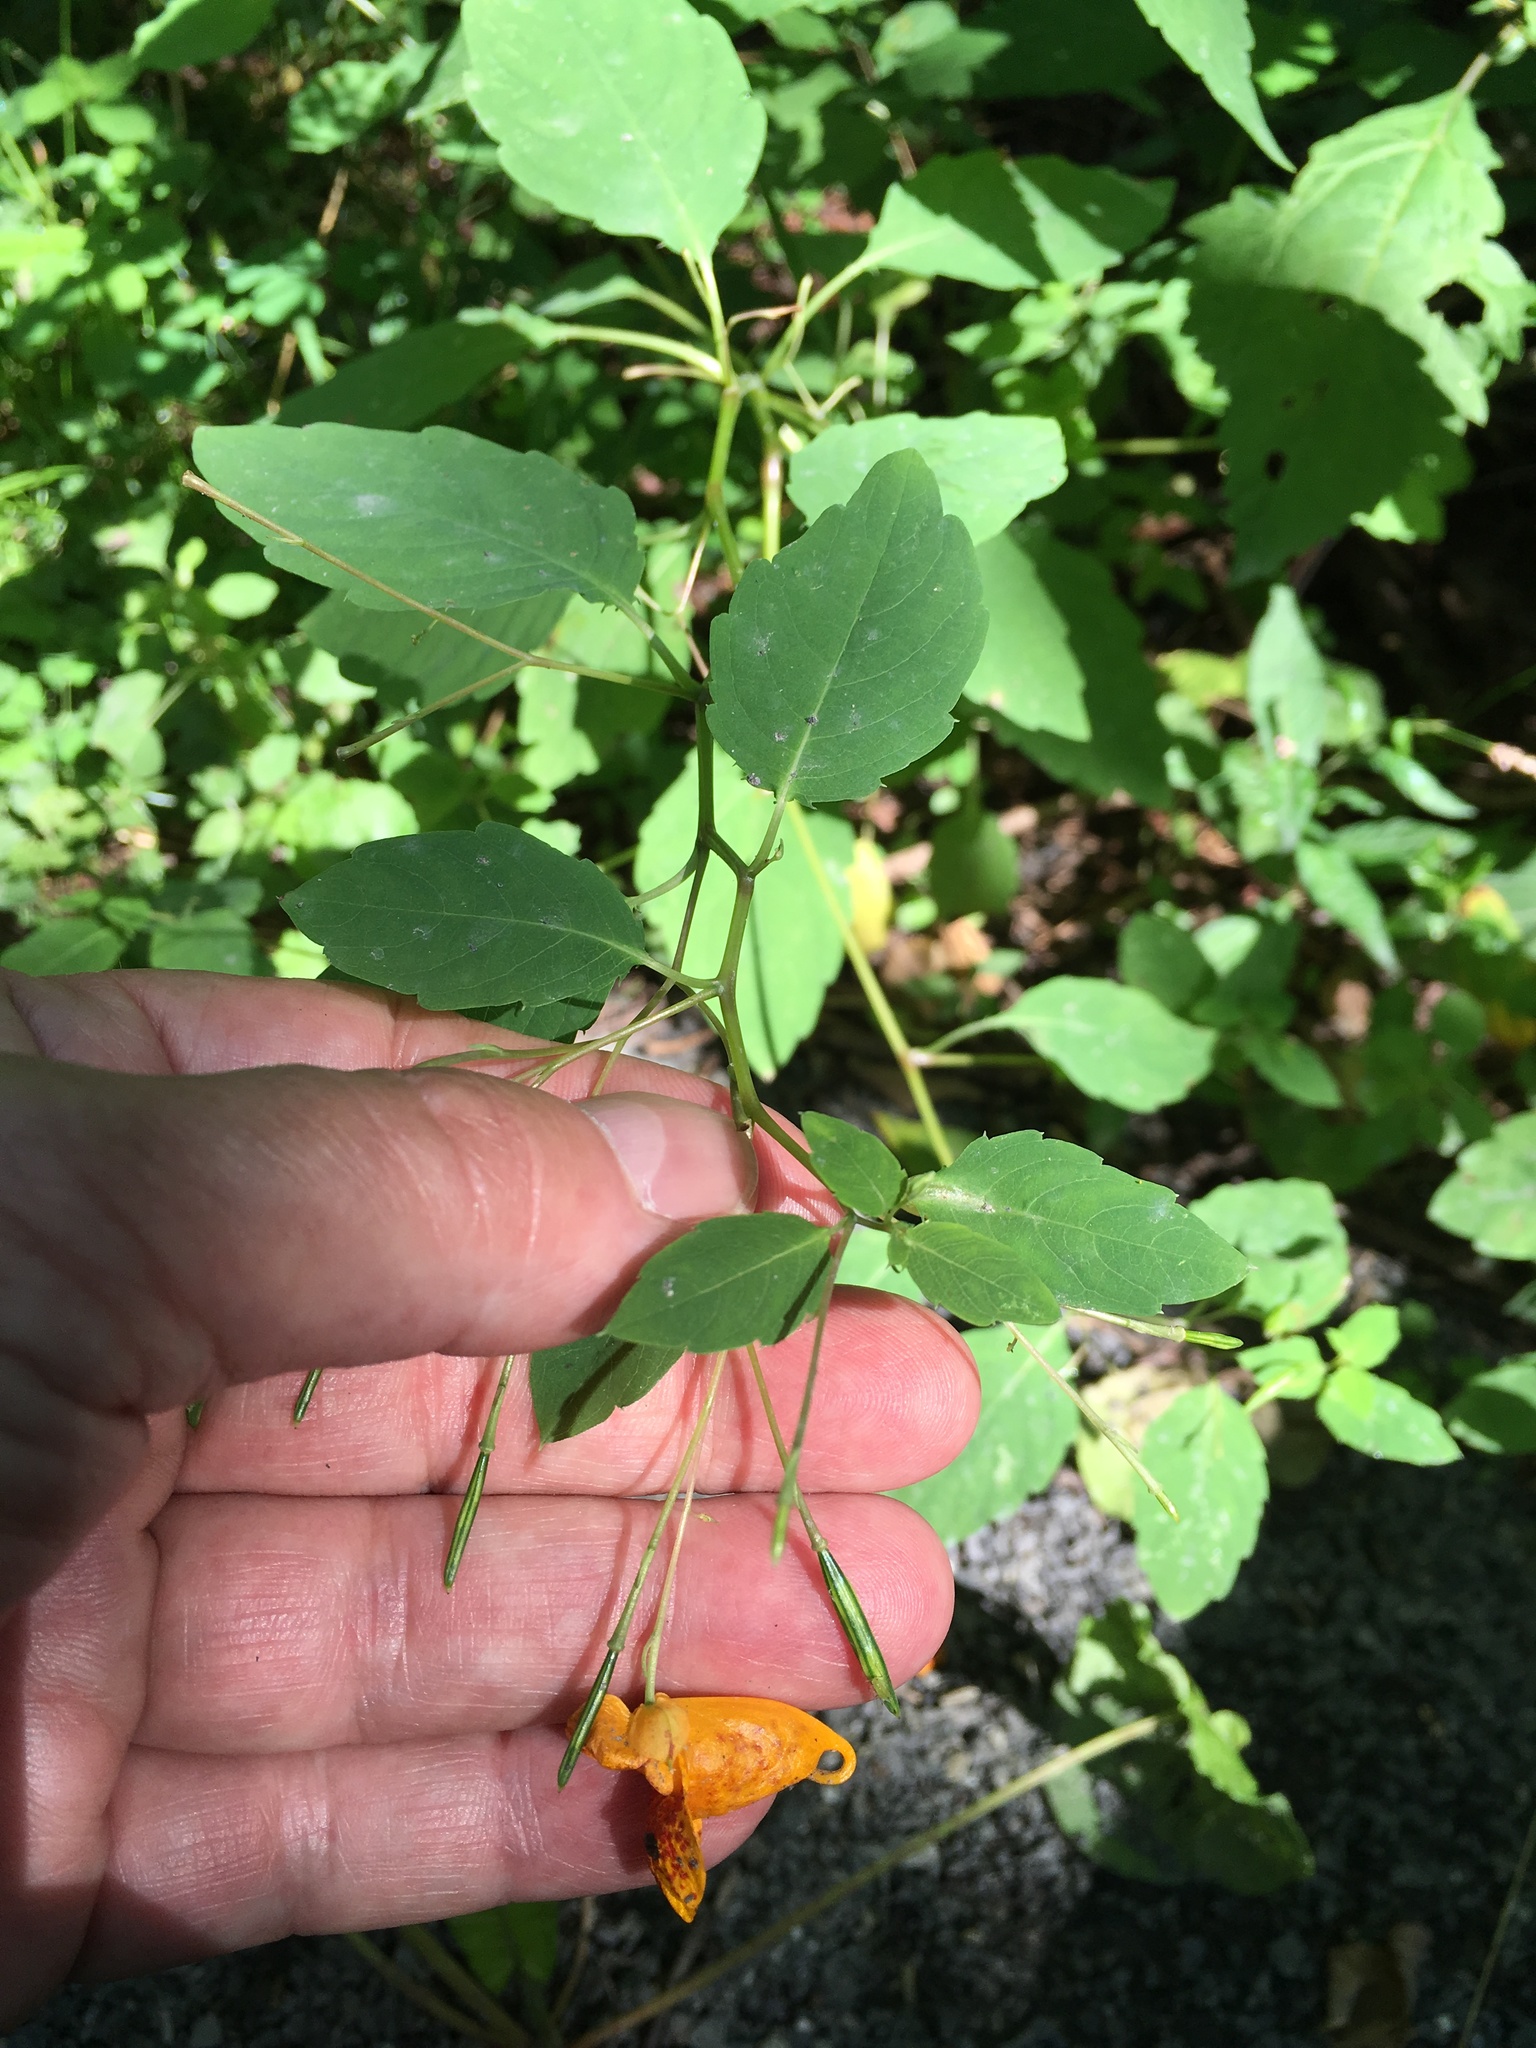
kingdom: Plantae
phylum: Tracheophyta
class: Magnoliopsida
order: Ericales
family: Balsaminaceae
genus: Impatiens
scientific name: Impatiens capensis
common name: Orange balsam
